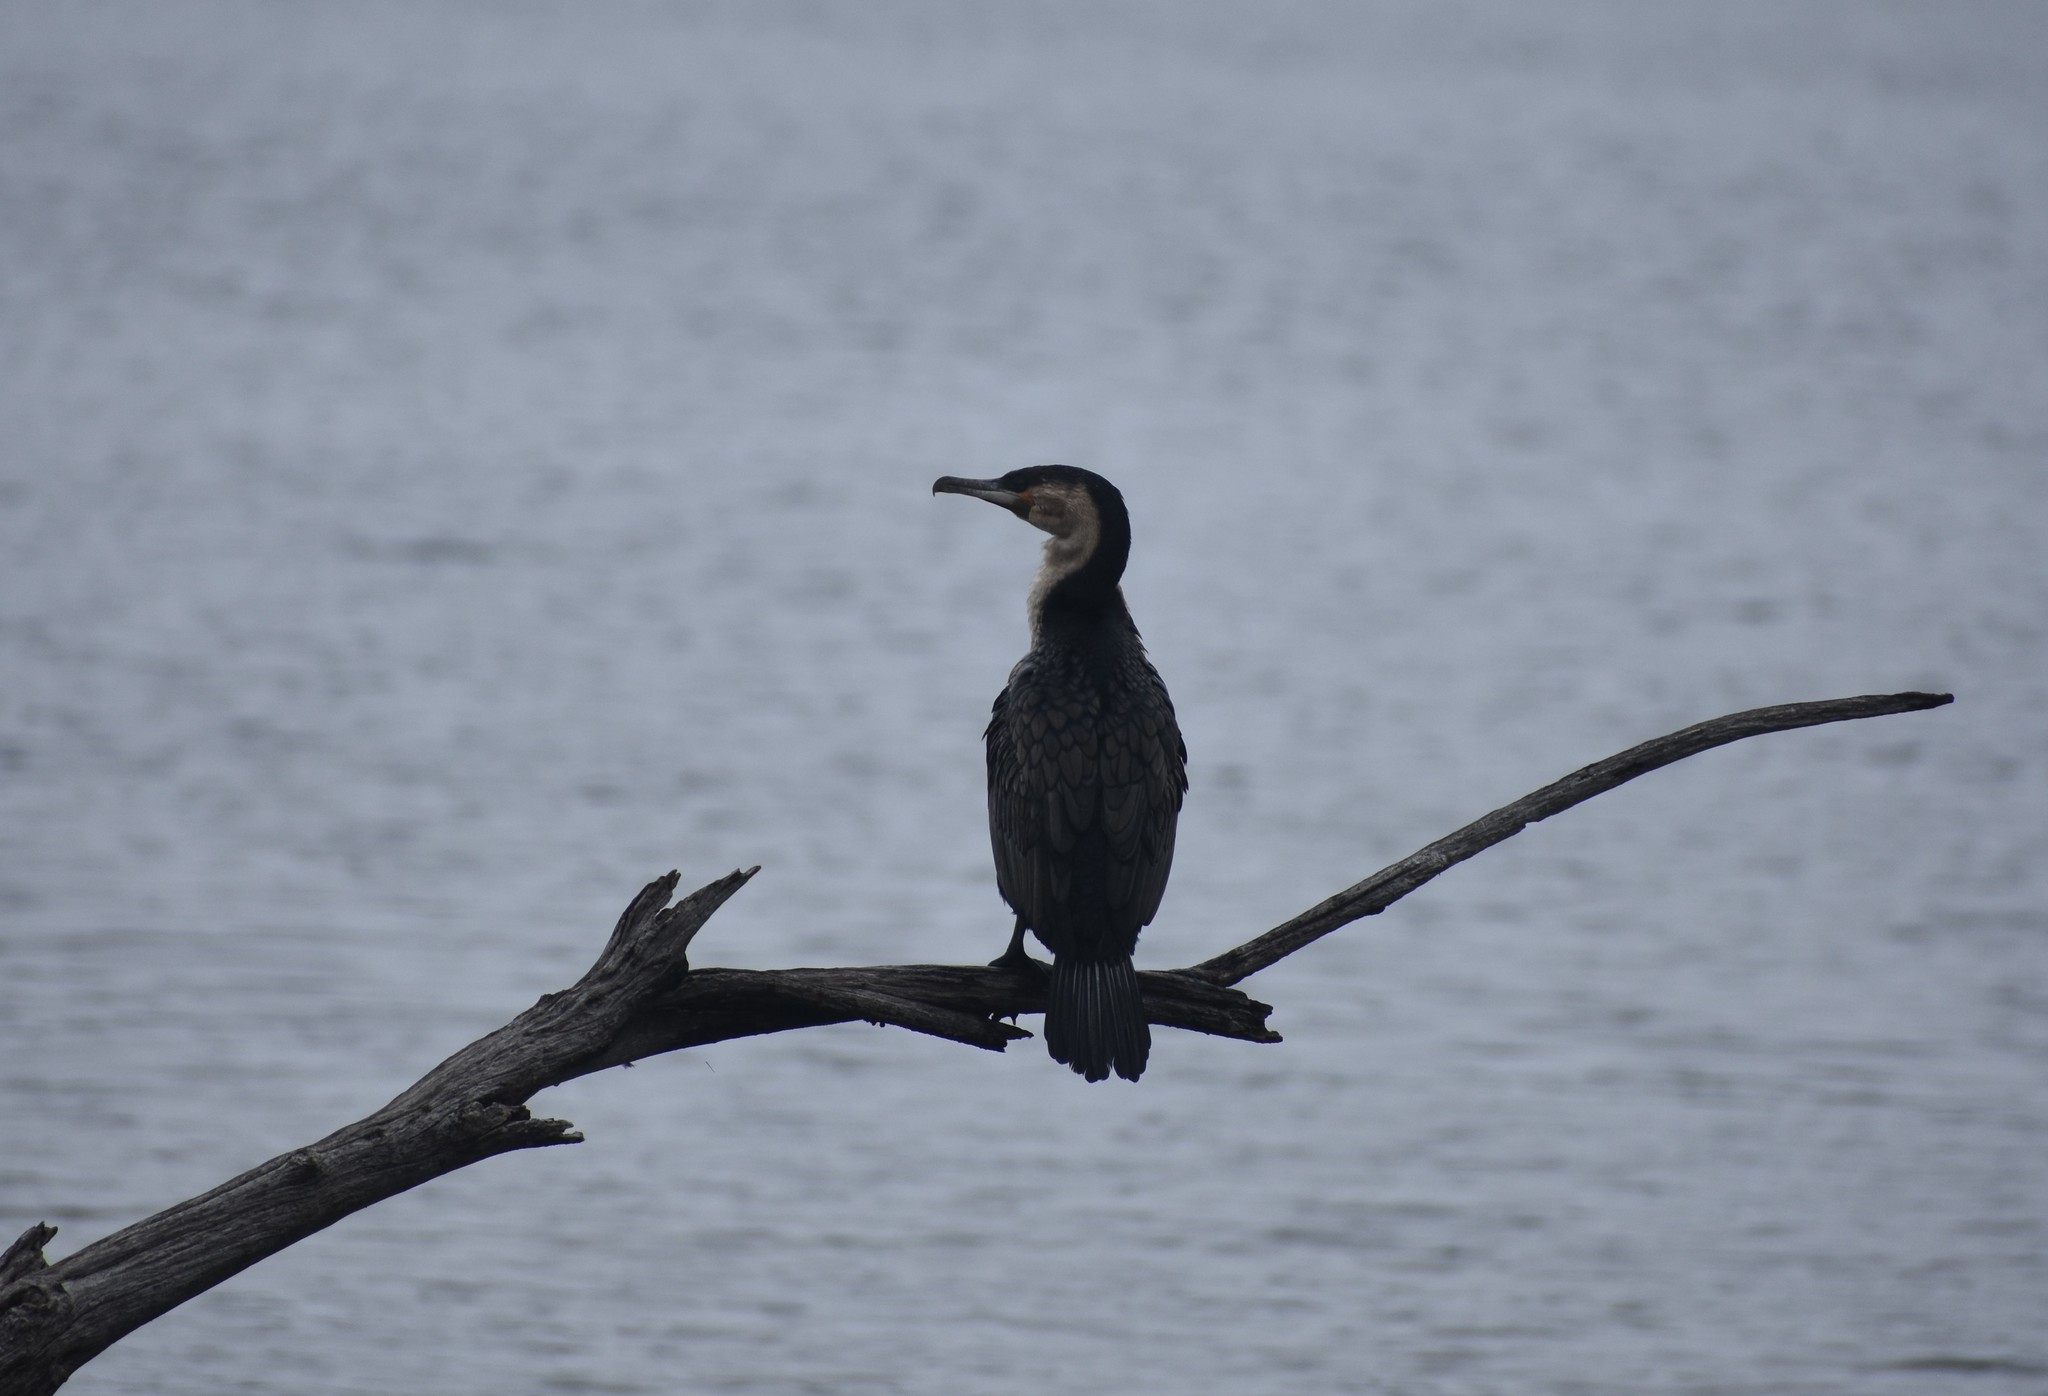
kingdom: Animalia
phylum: Chordata
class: Aves
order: Suliformes
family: Phalacrocoracidae
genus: Phalacrocorax
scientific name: Phalacrocorax carbo
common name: Great cormorant
